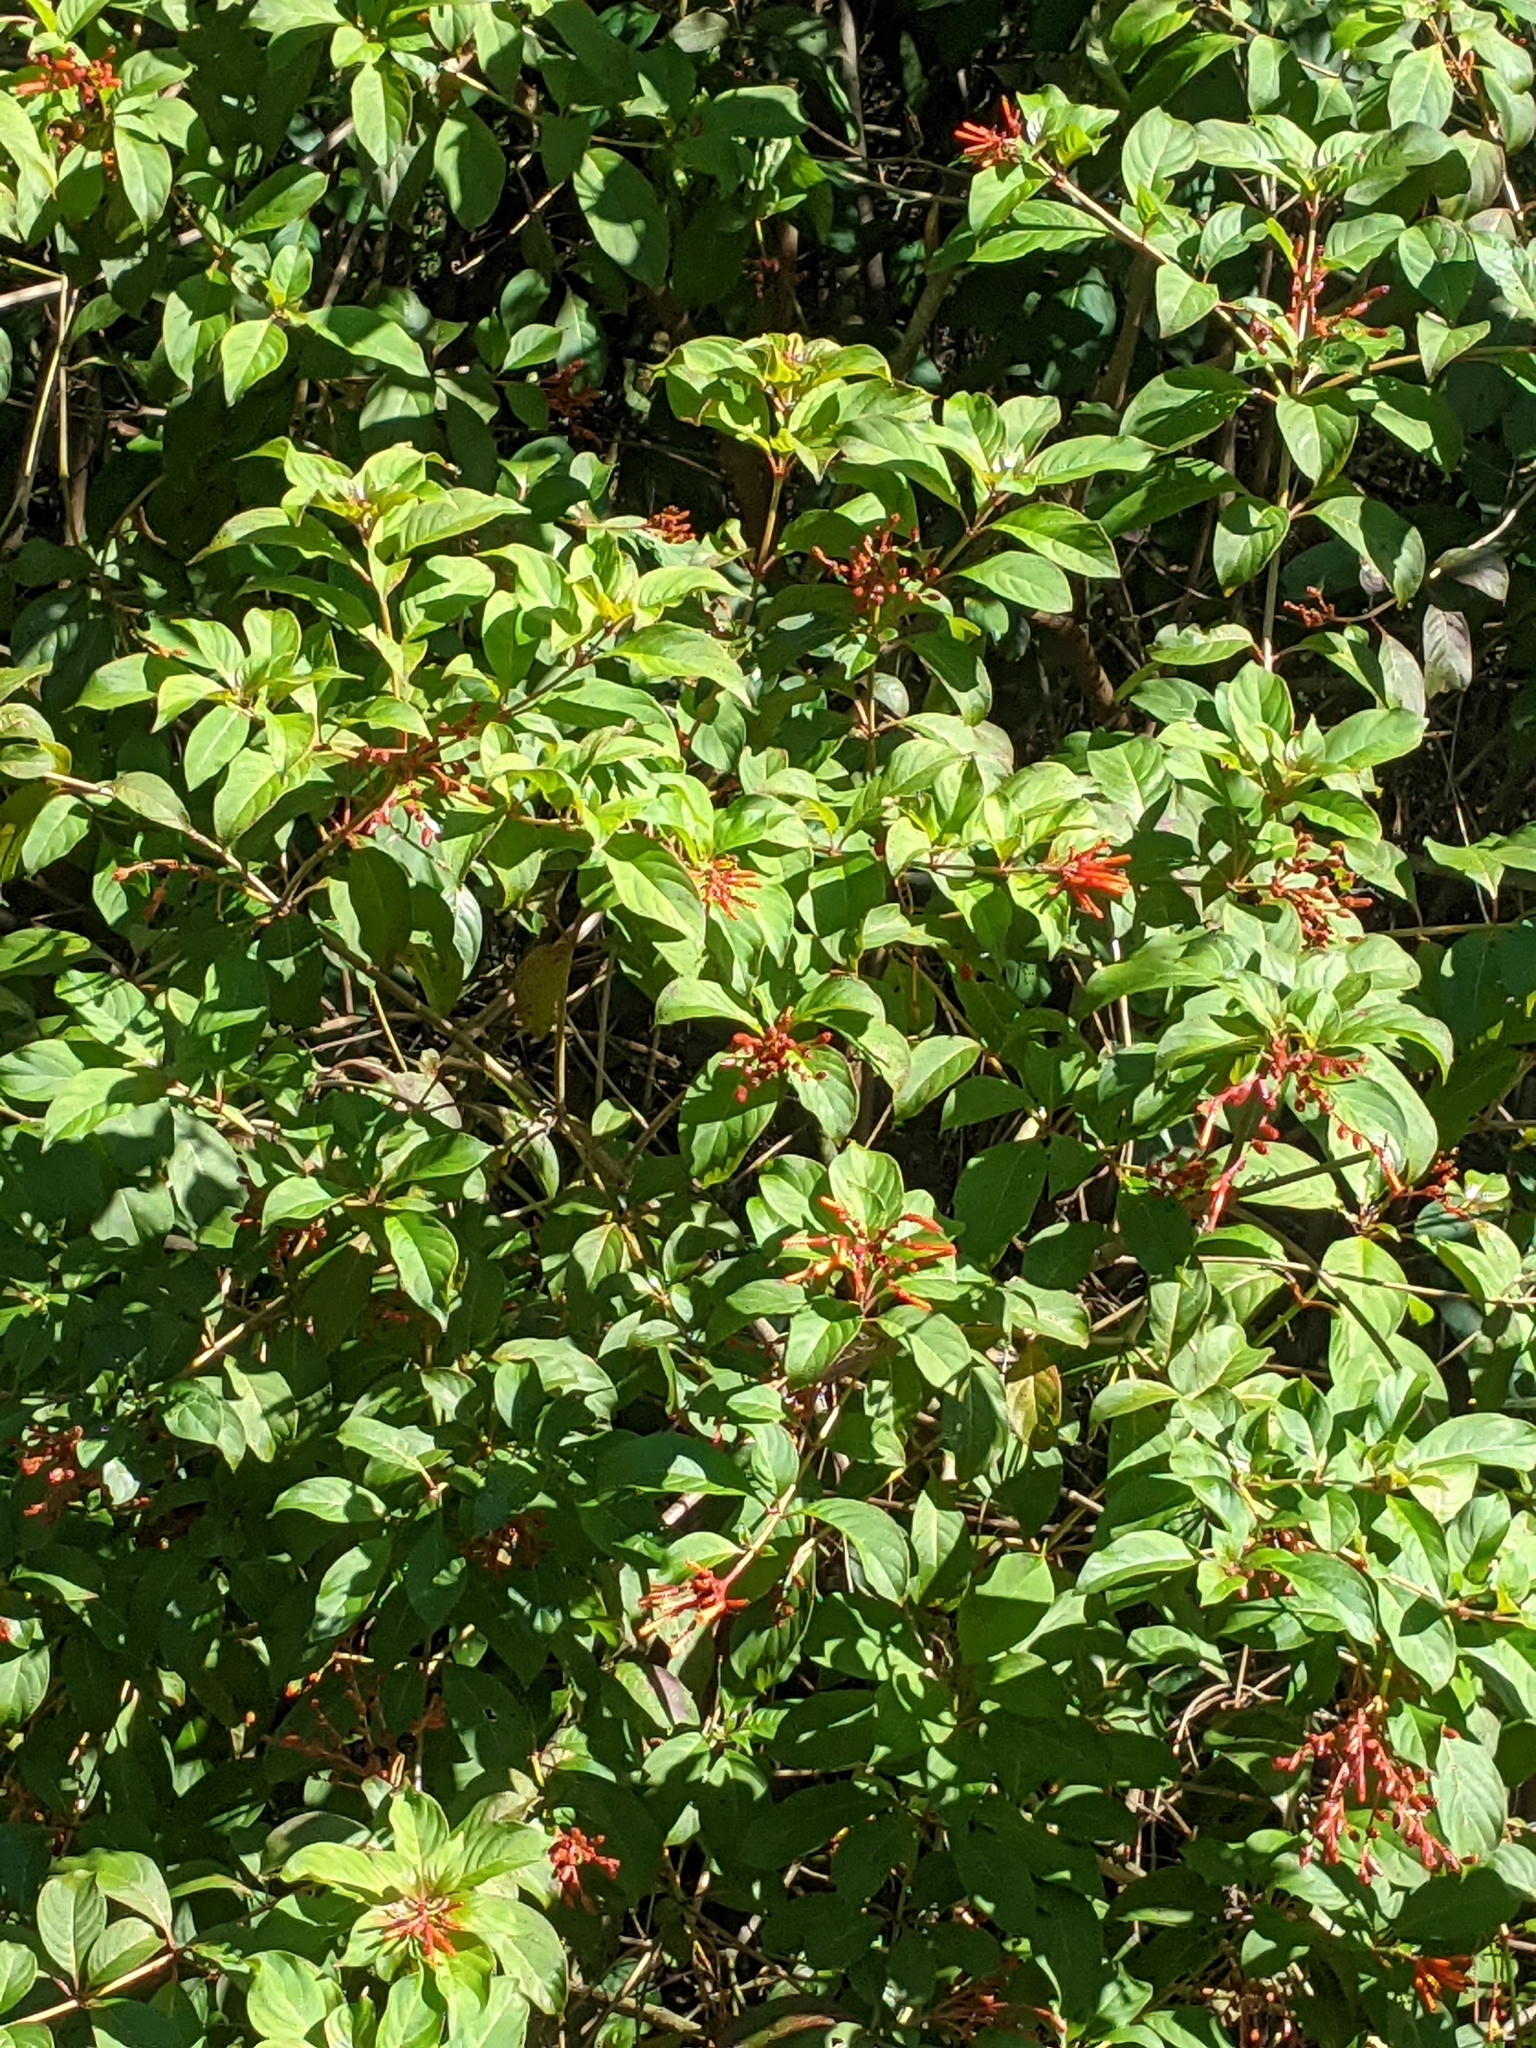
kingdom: Plantae
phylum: Tracheophyta
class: Magnoliopsida
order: Gentianales
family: Rubiaceae
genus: Hamelia
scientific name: Hamelia patens
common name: Redhead
